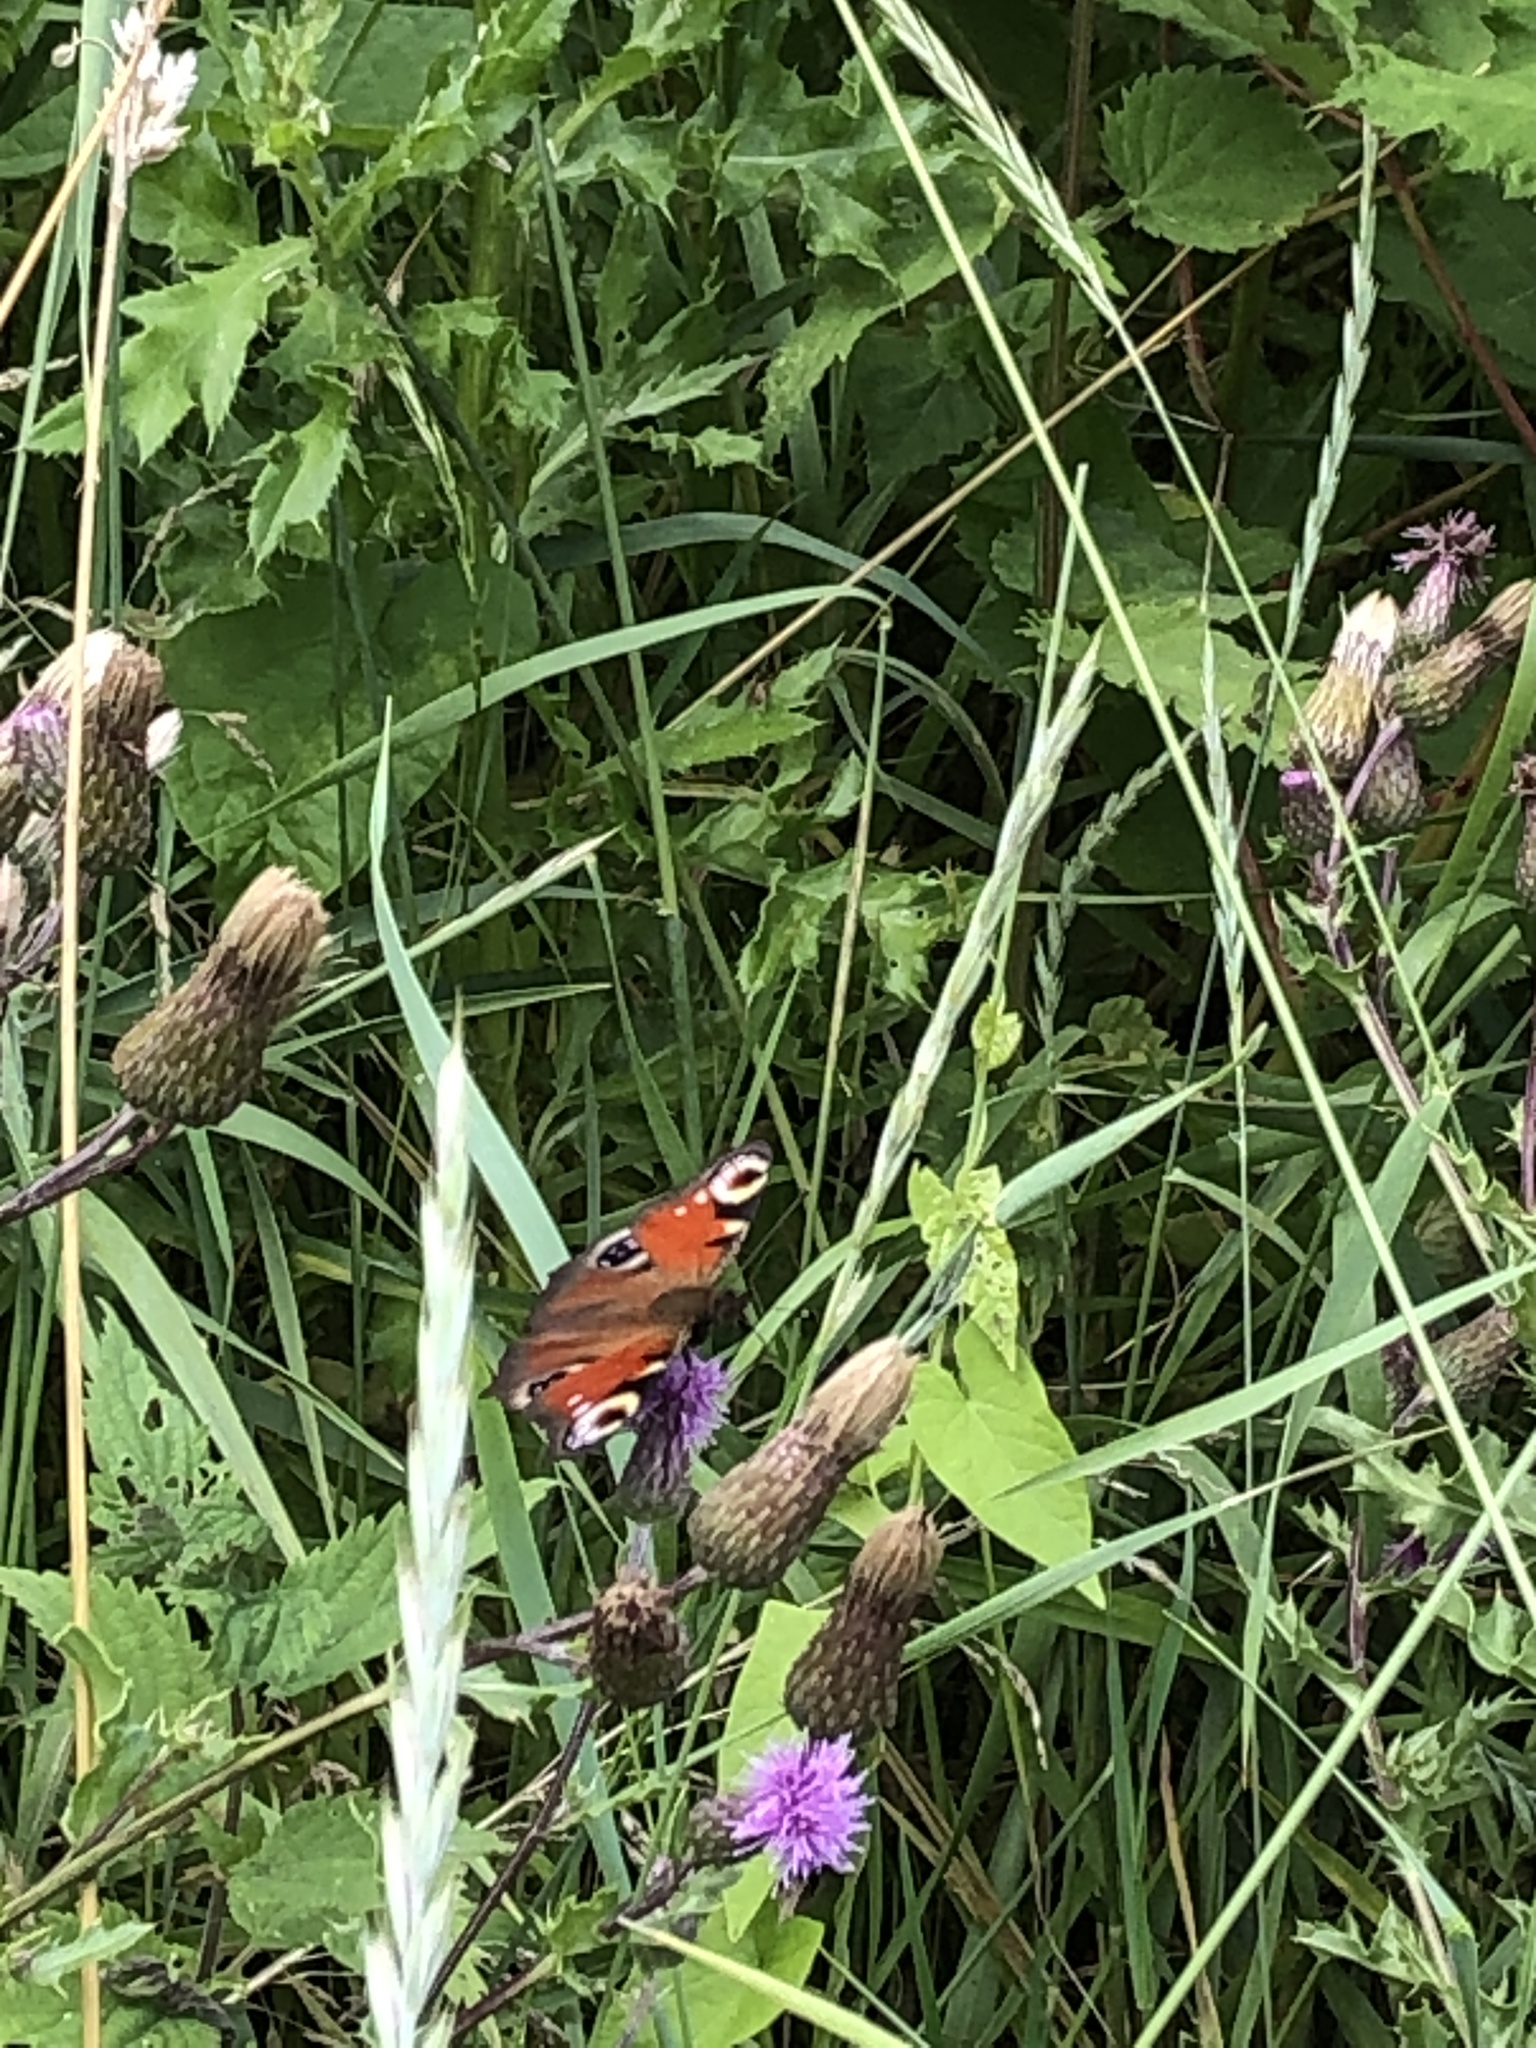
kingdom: Animalia
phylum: Arthropoda
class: Insecta
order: Lepidoptera
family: Nymphalidae
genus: Aglais
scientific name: Aglais io
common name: Peacock
